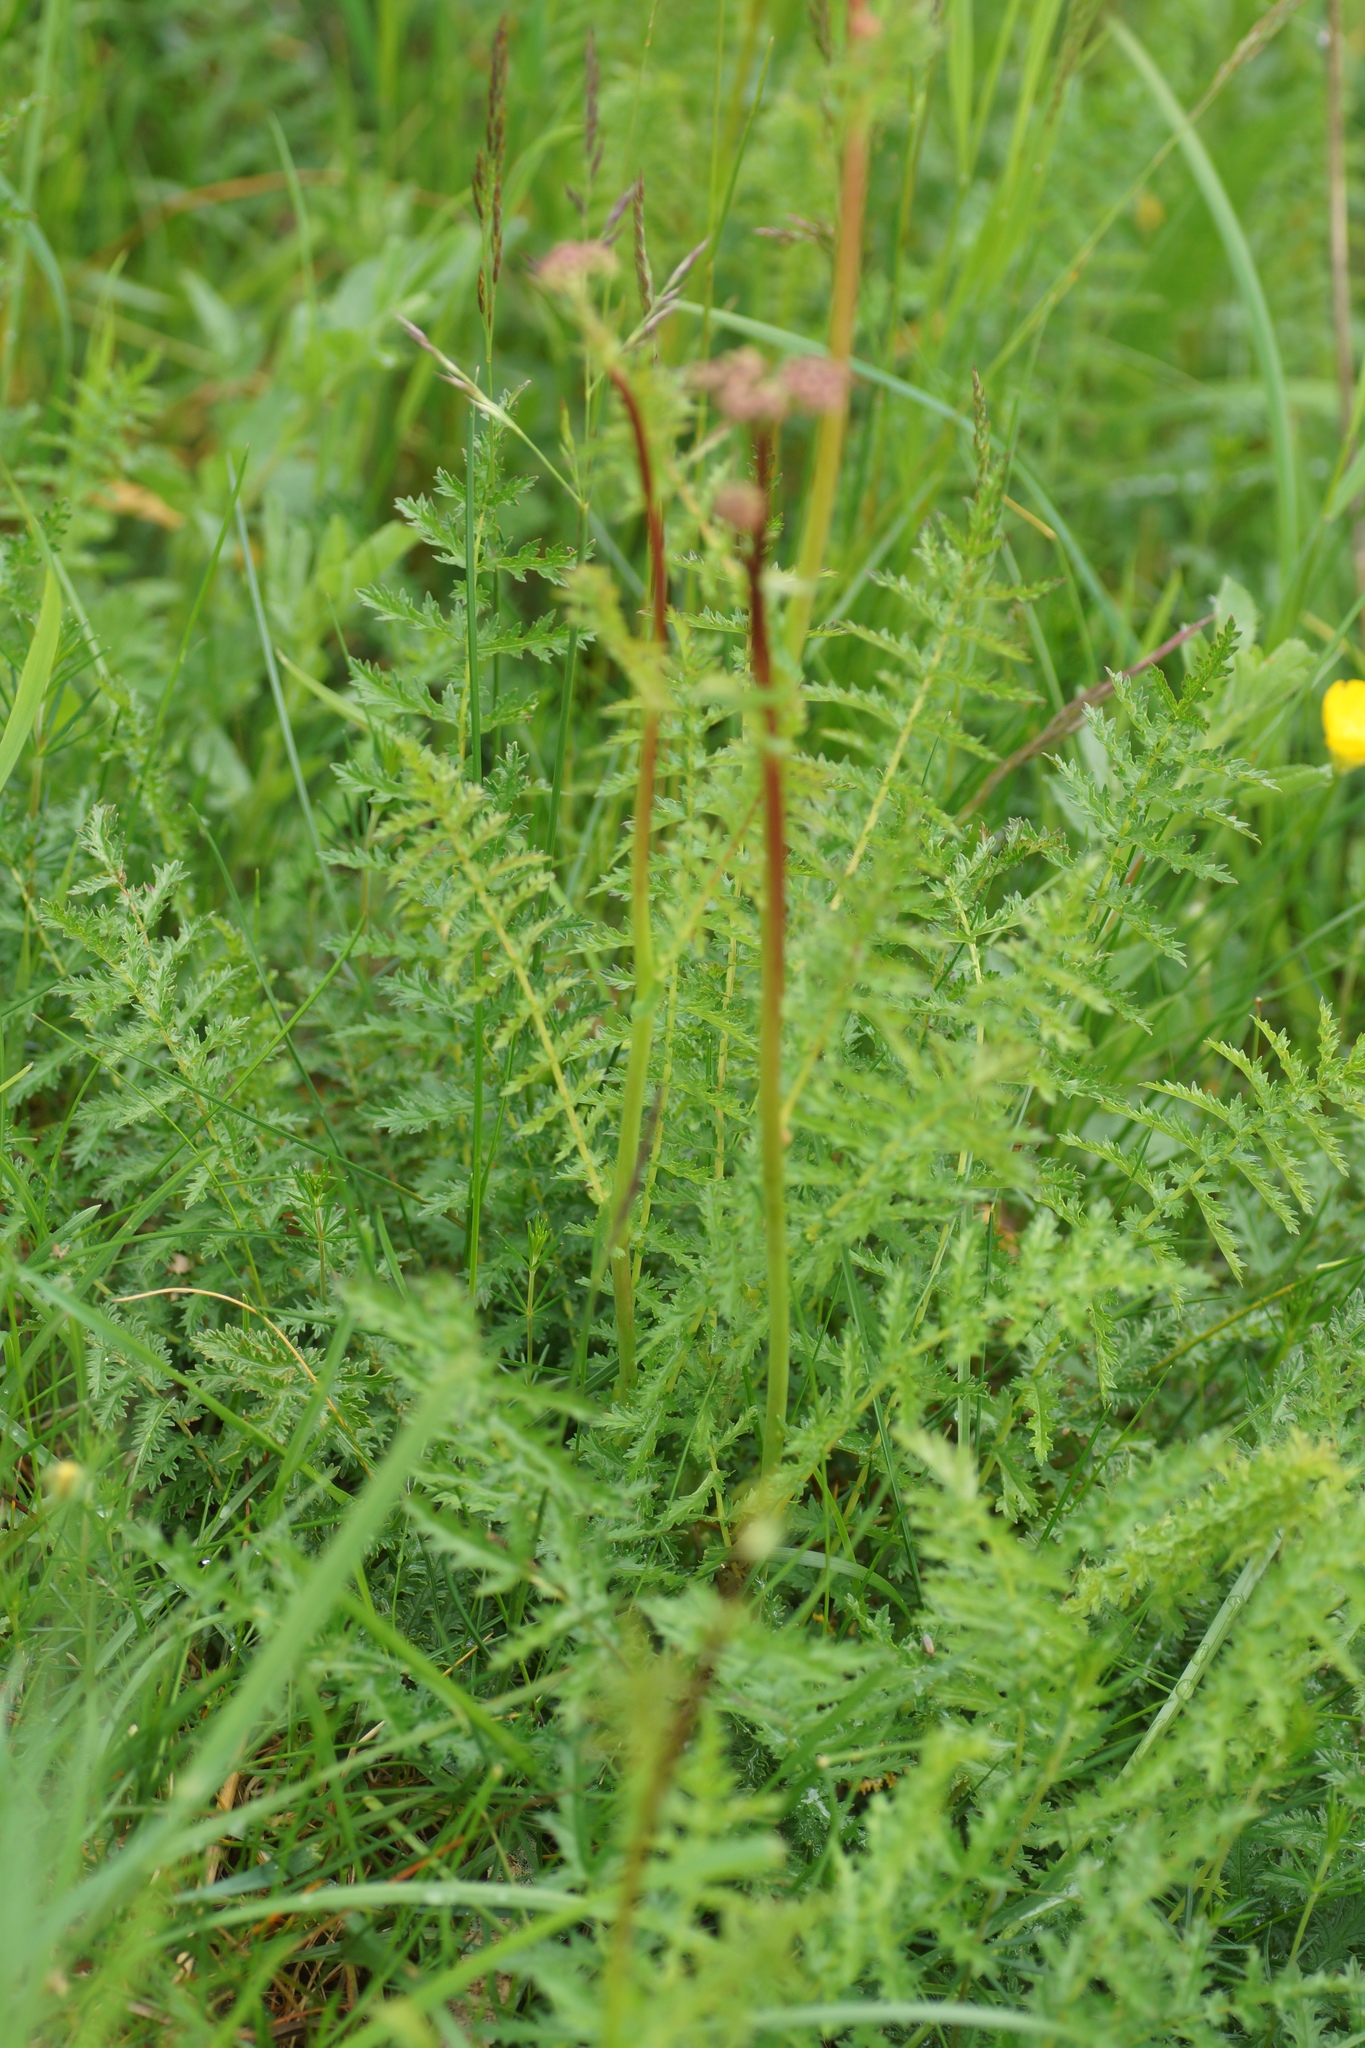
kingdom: Plantae
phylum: Tracheophyta
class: Magnoliopsida
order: Rosales
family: Rosaceae
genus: Filipendula
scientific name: Filipendula vulgaris
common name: Dropwort
